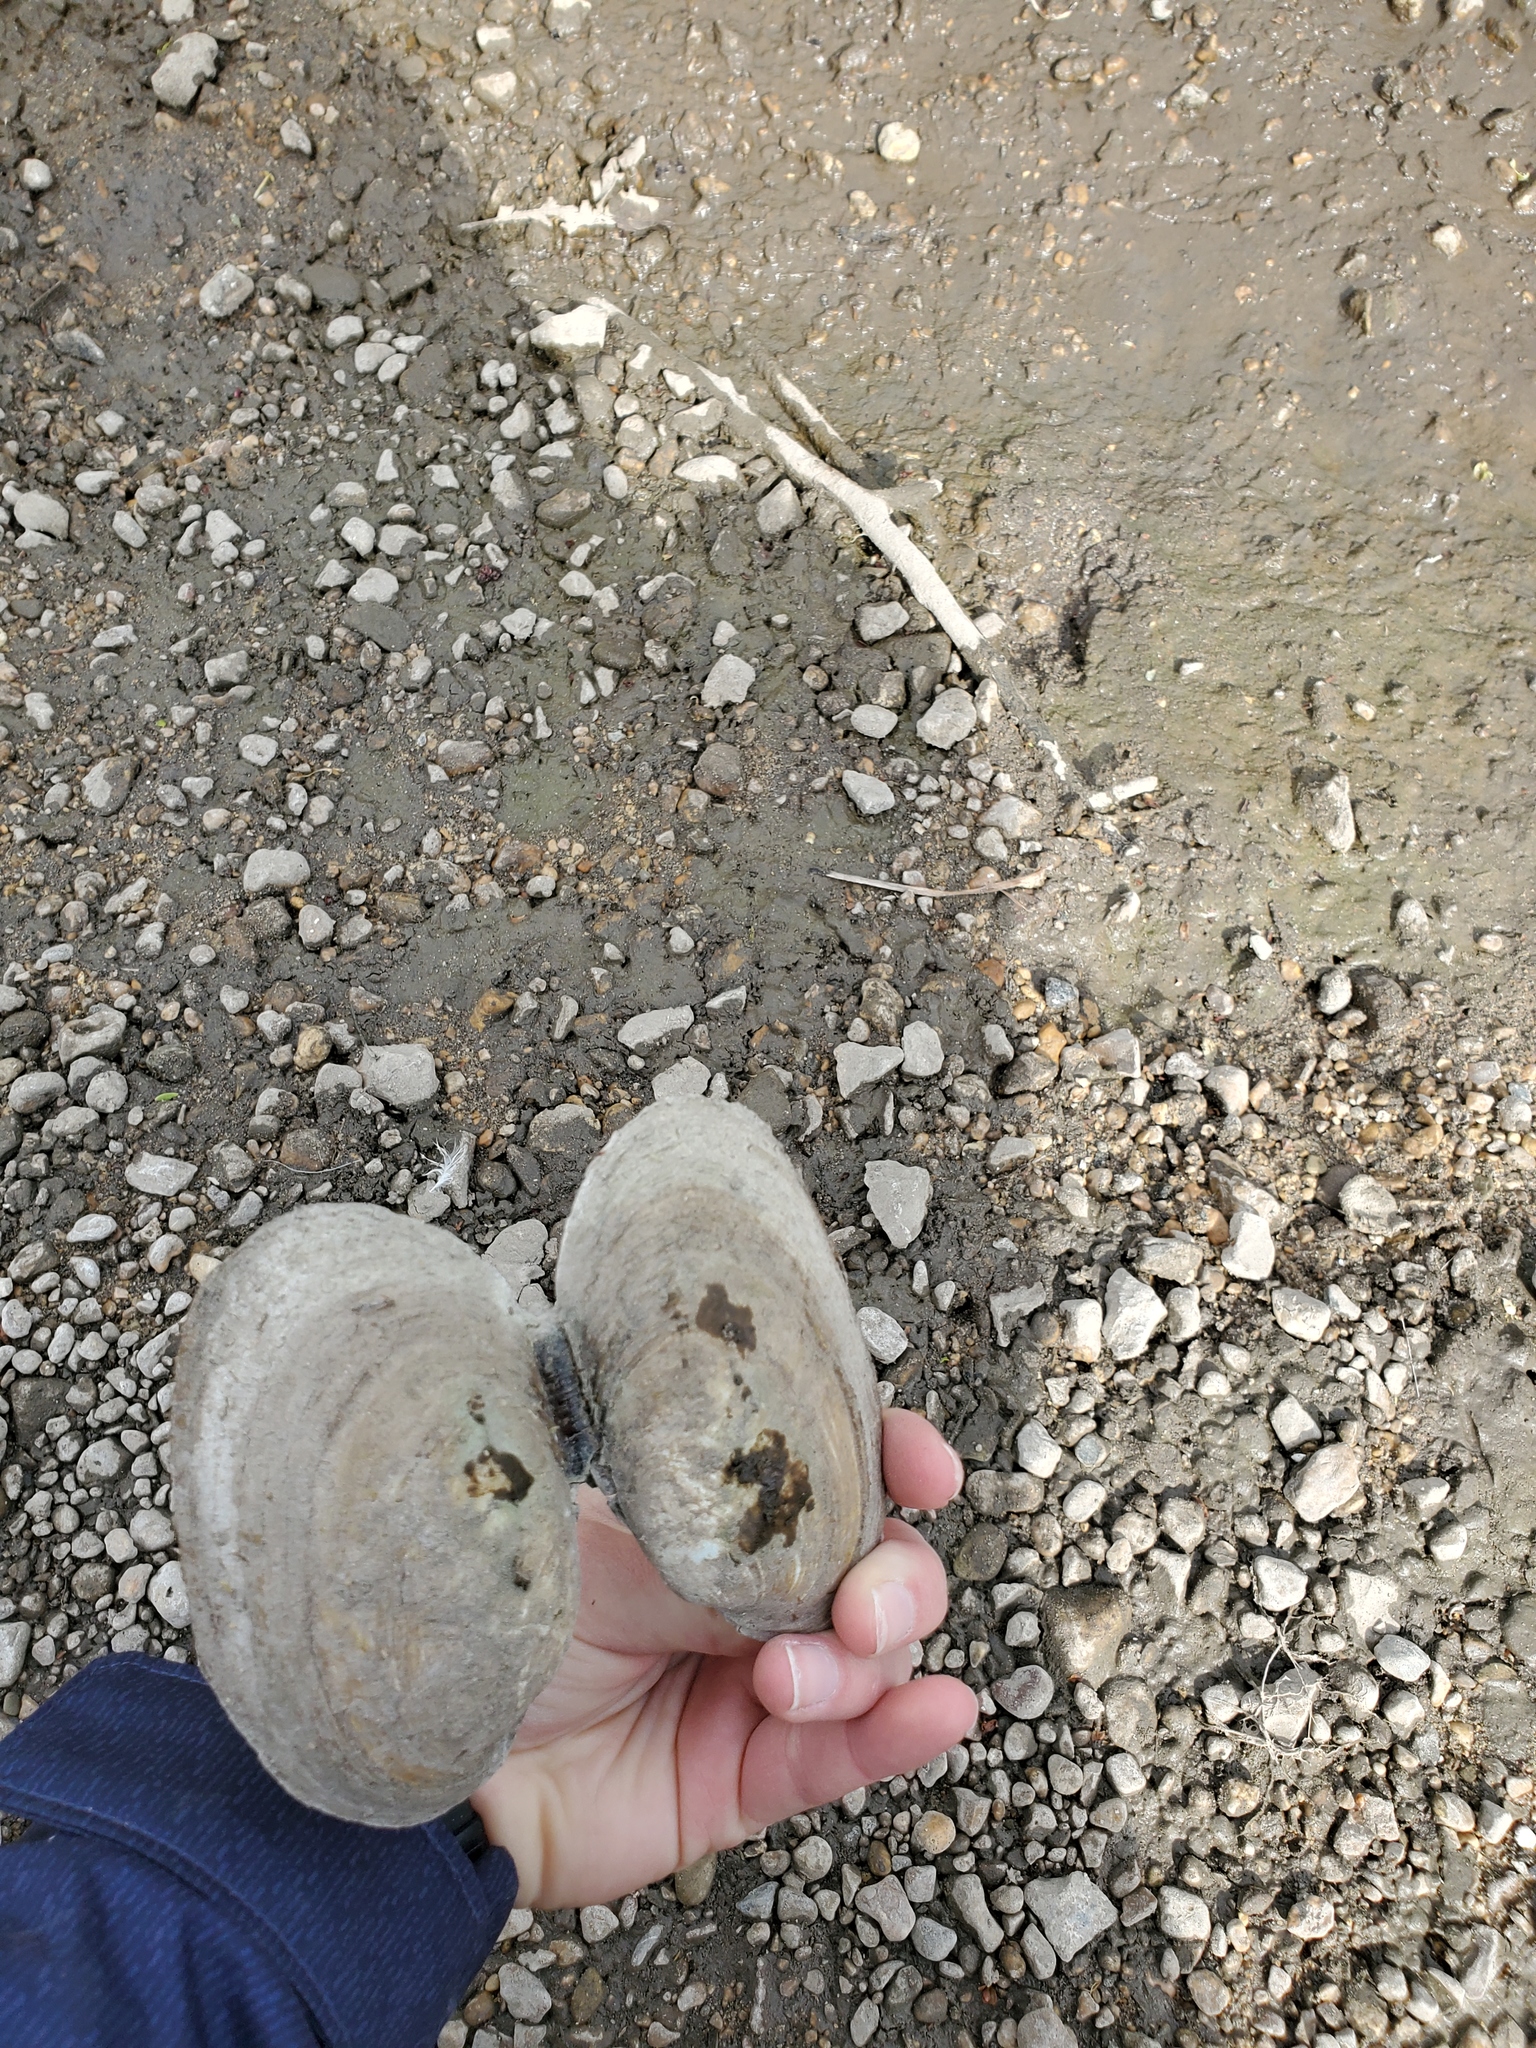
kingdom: Animalia
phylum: Mollusca
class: Bivalvia
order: Unionida
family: Unionidae
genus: Ortmanniana
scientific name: Ortmanniana ligamentina
